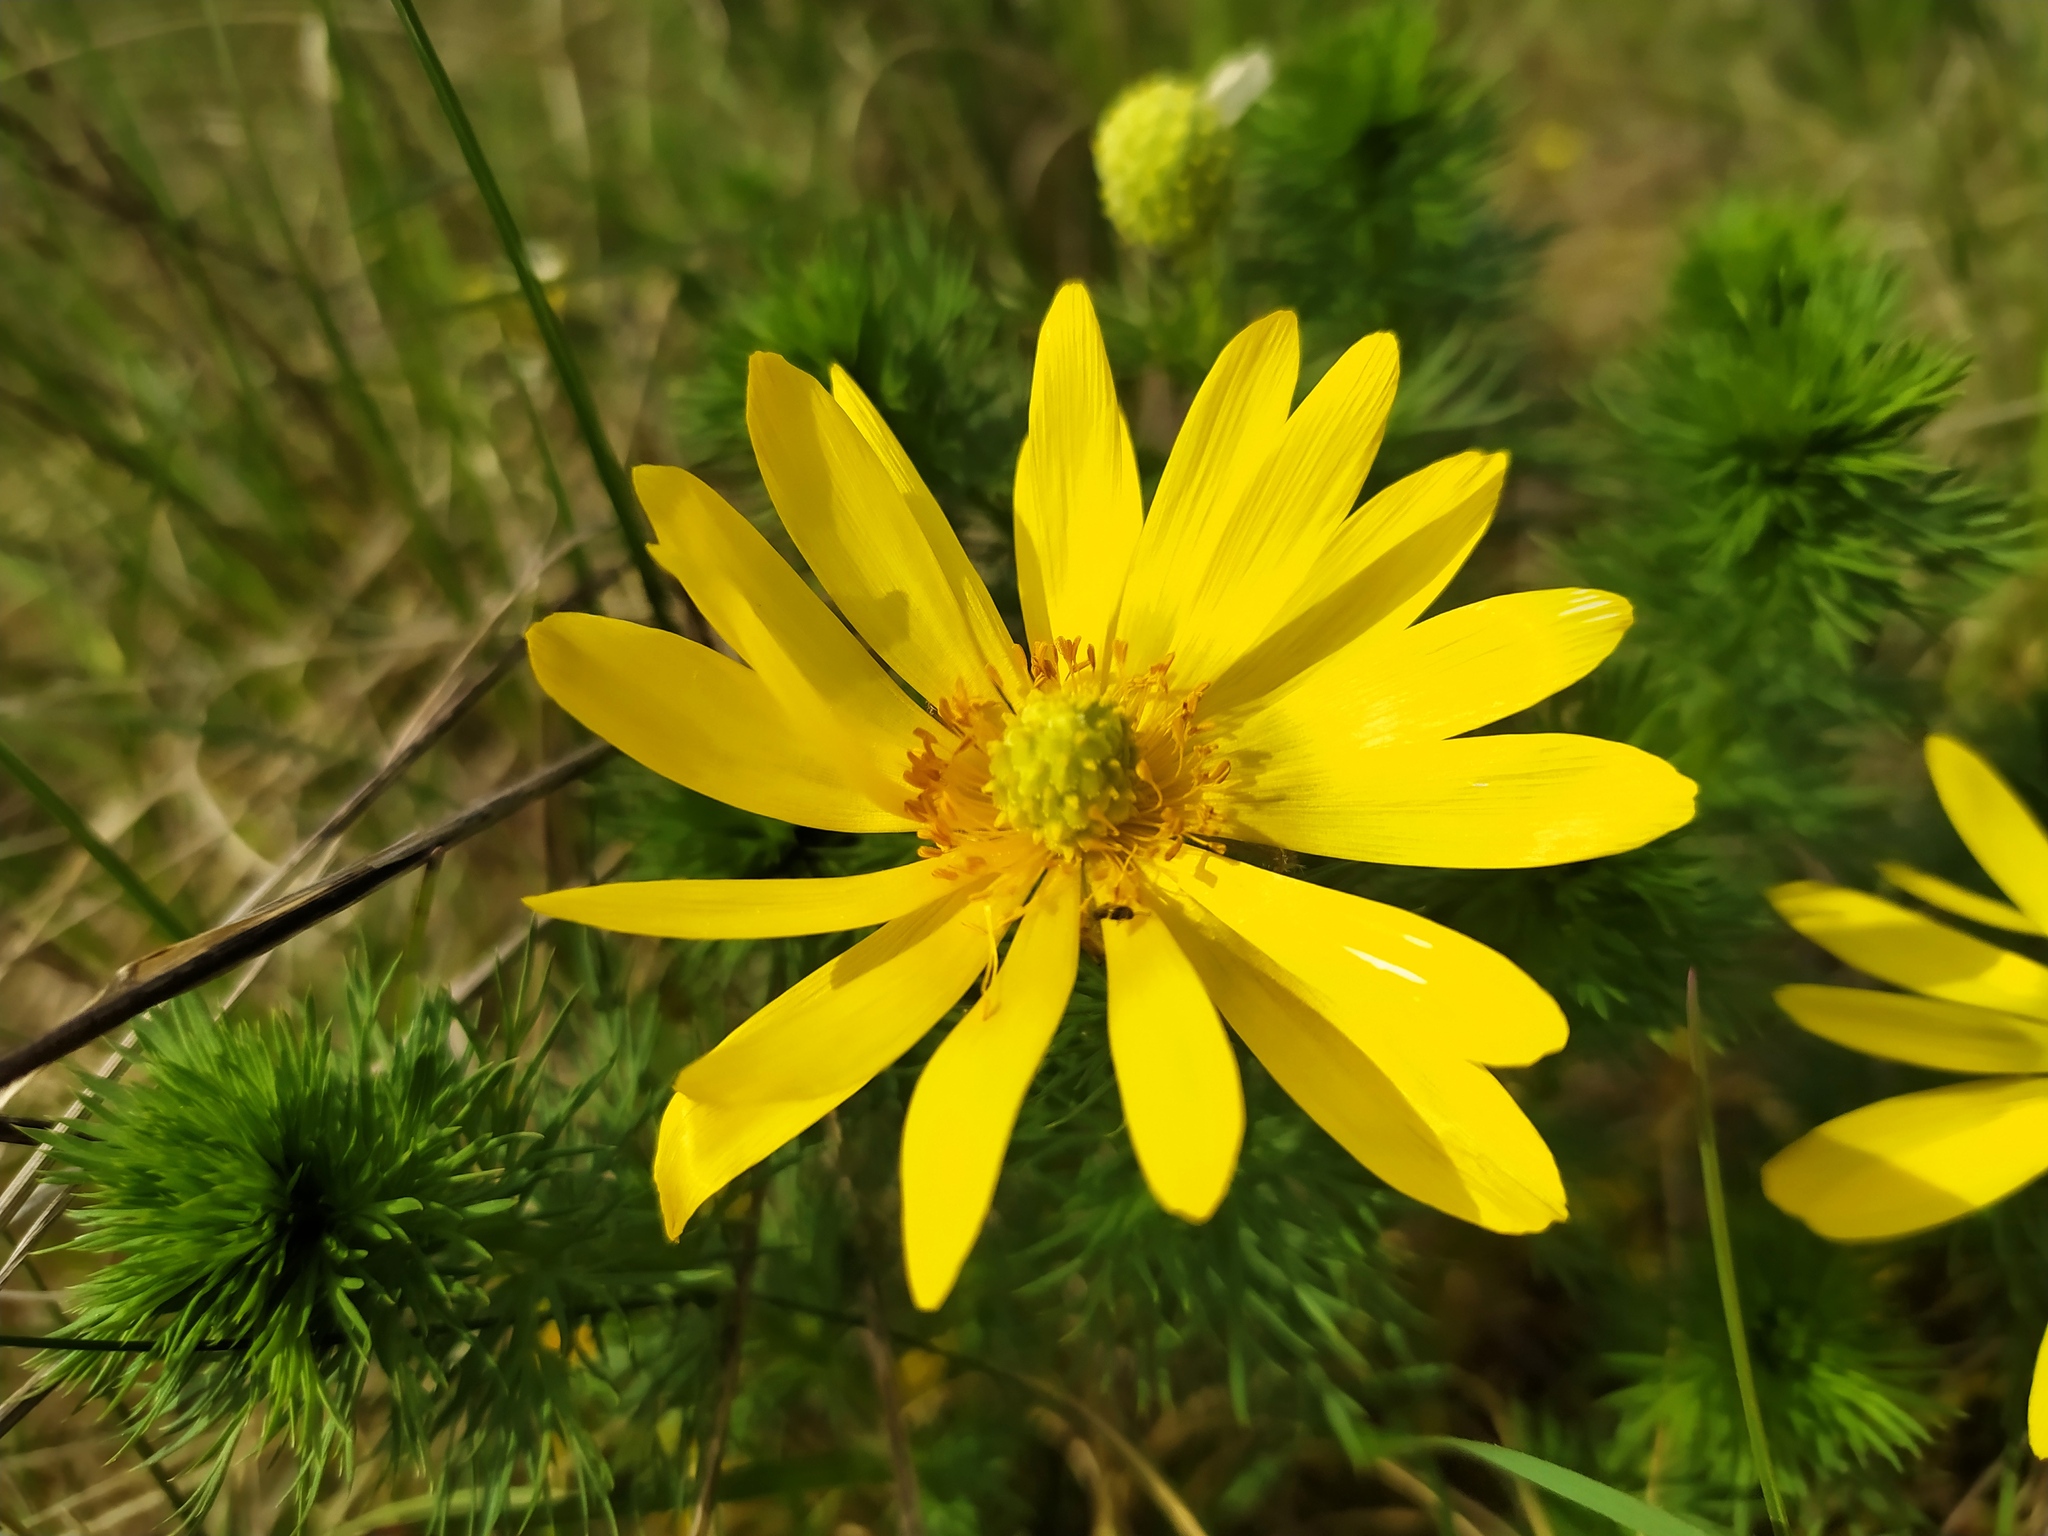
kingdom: Plantae
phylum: Tracheophyta
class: Magnoliopsida
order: Ranunculales
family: Ranunculaceae
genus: Adonis
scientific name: Adonis vernalis
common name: Yellow pheasants-eye
